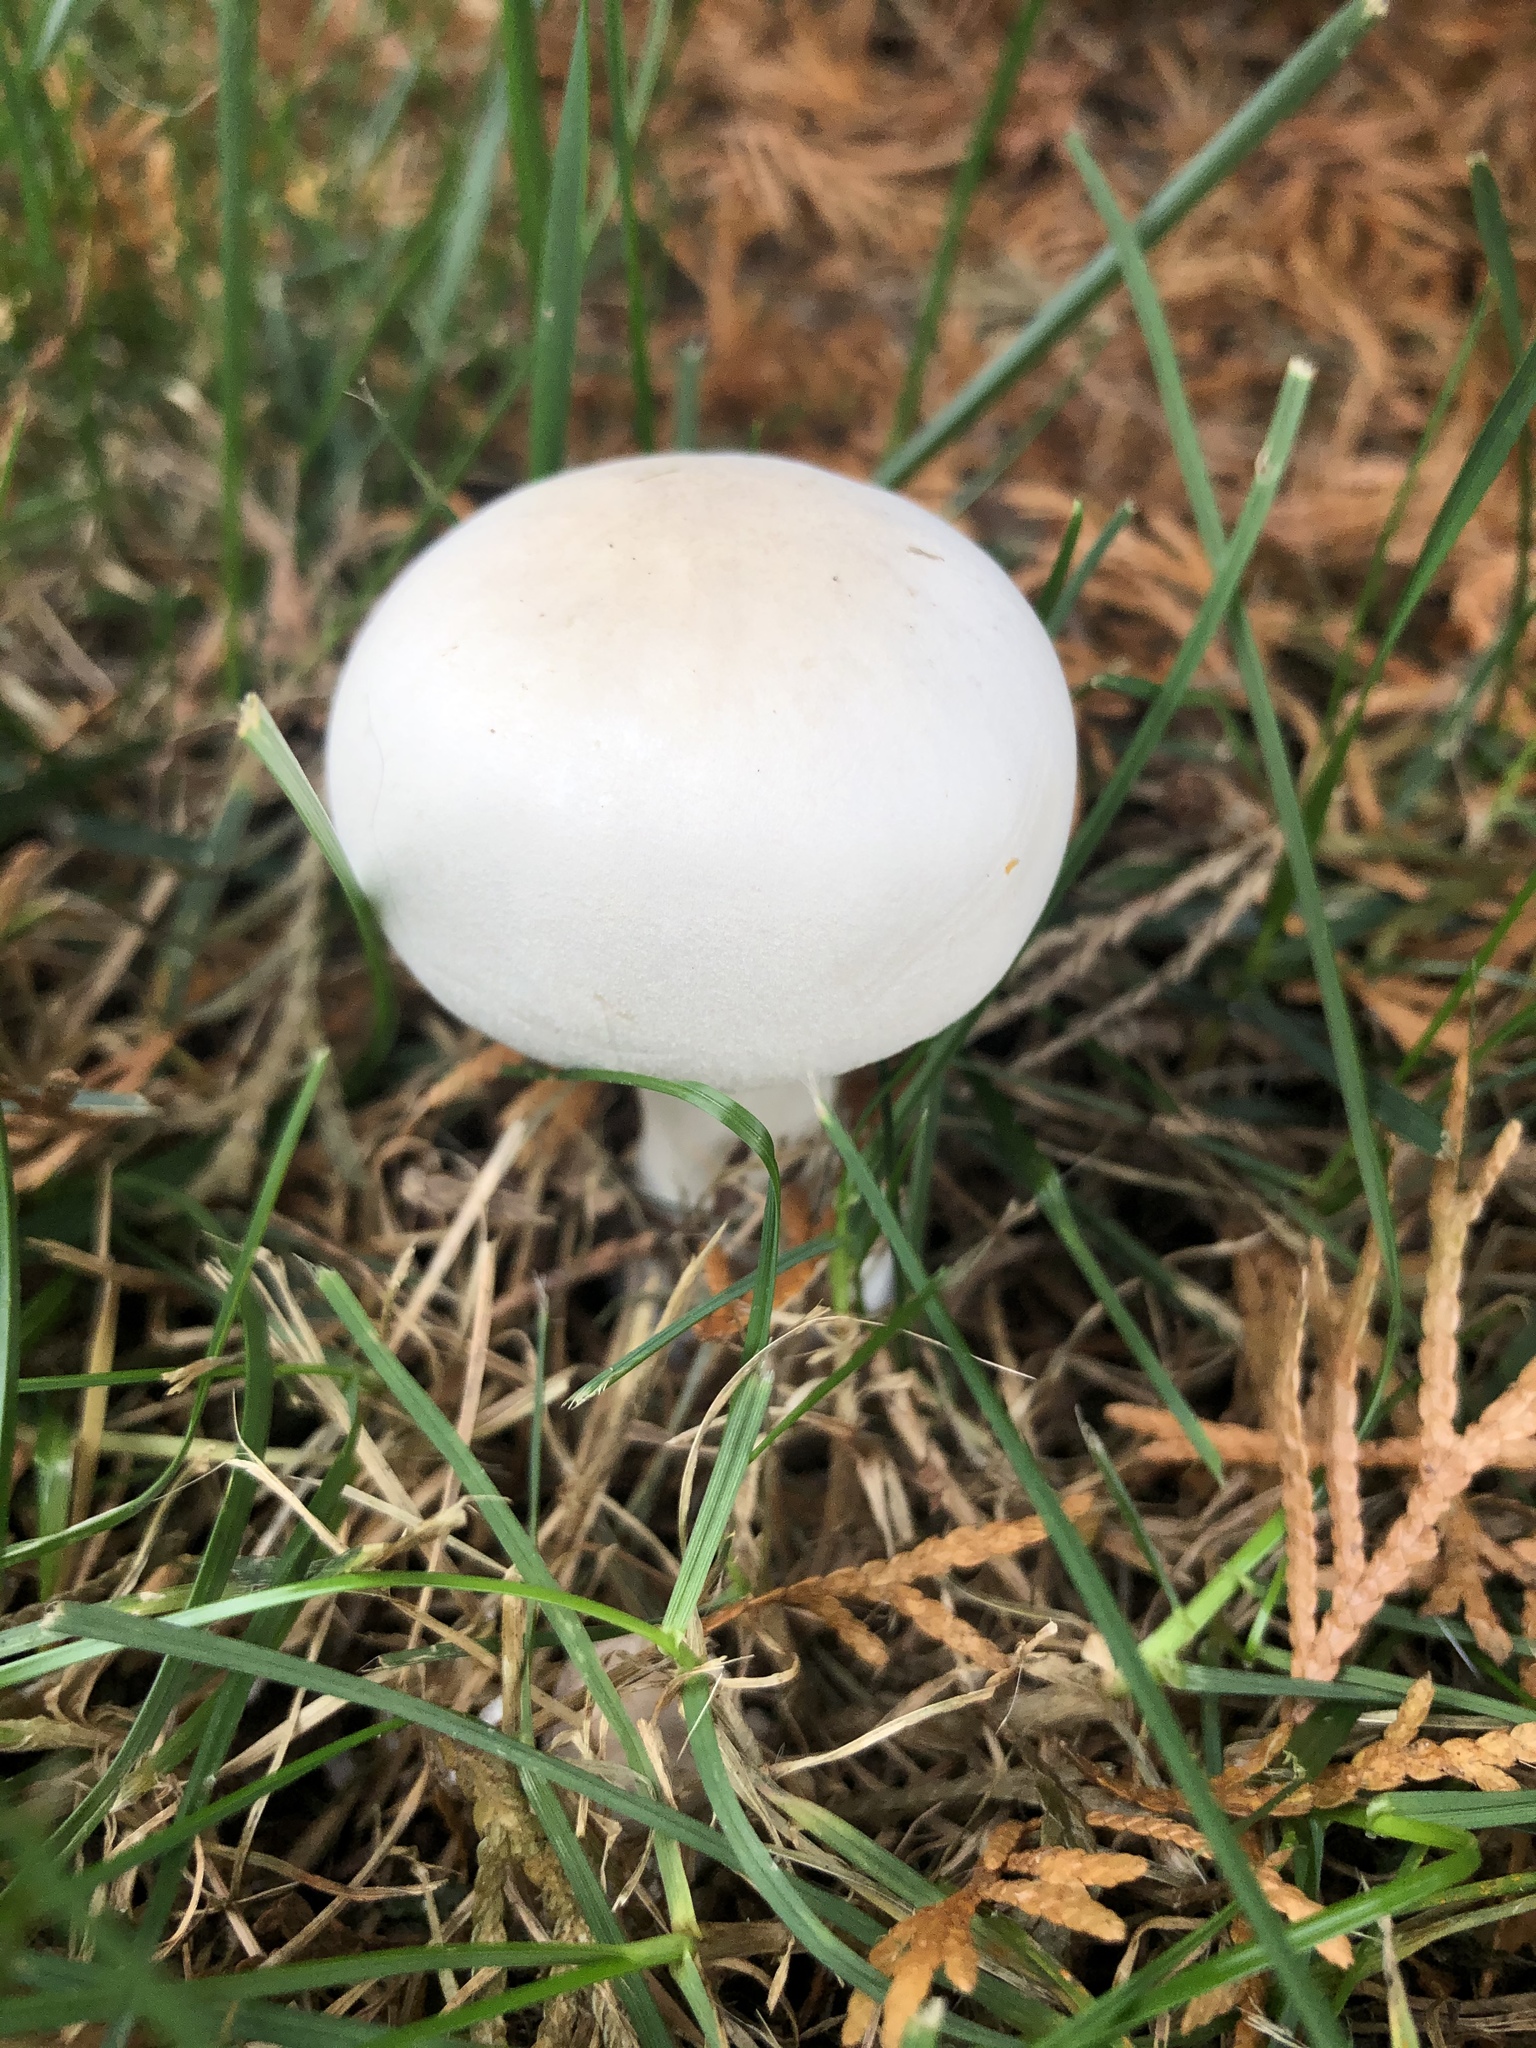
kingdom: Fungi
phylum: Basidiomycota
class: Agaricomycetes
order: Agaricales
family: Agaricaceae
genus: Leucoagaricus
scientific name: Leucoagaricus leucothites
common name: White dapperling
